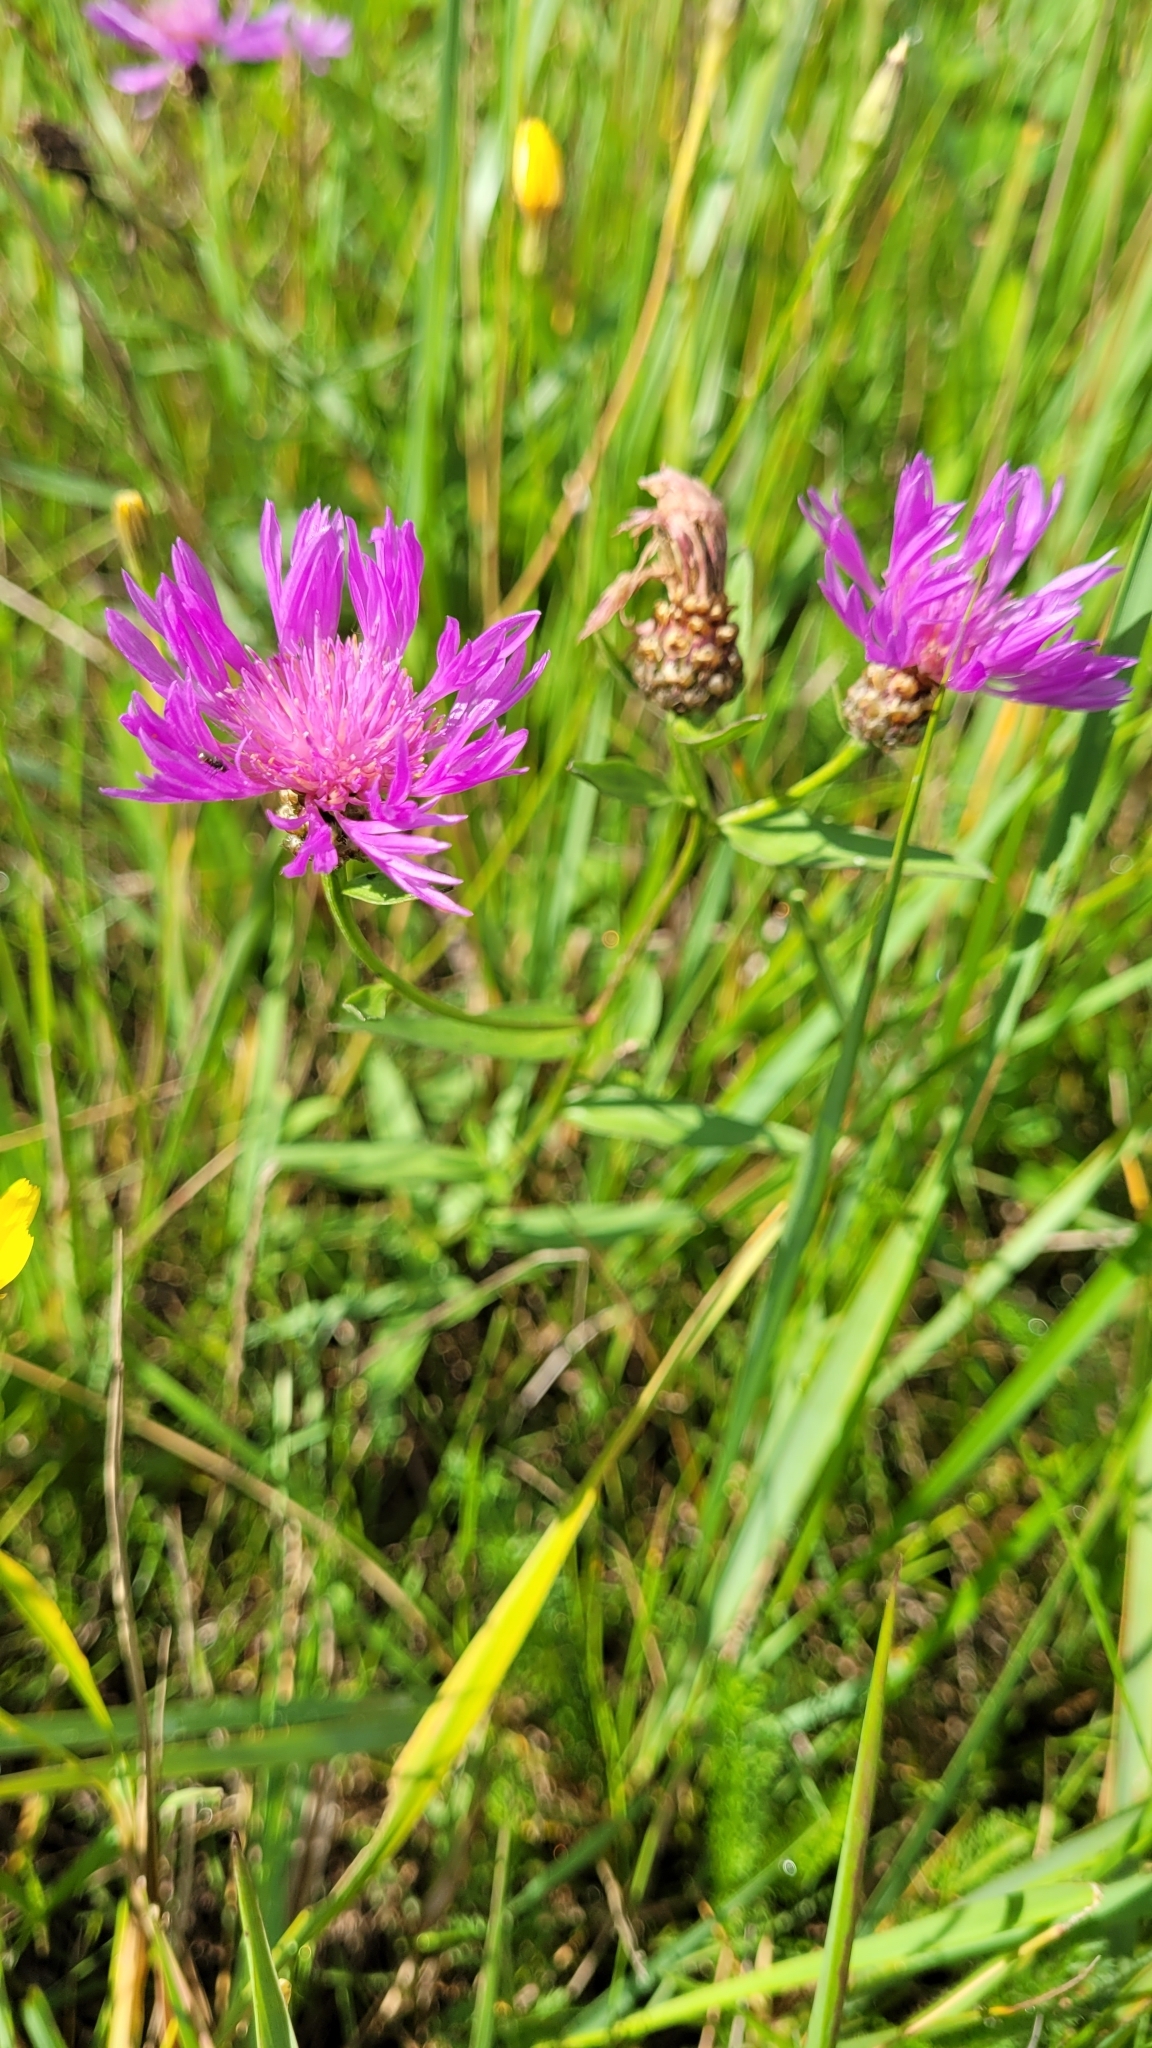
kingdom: Plantae
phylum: Tracheophyta
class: Magnoliopsida
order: Asterales
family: Asteraceae
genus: Centaurea
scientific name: Centaurea jacea
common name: Brown knapweed
